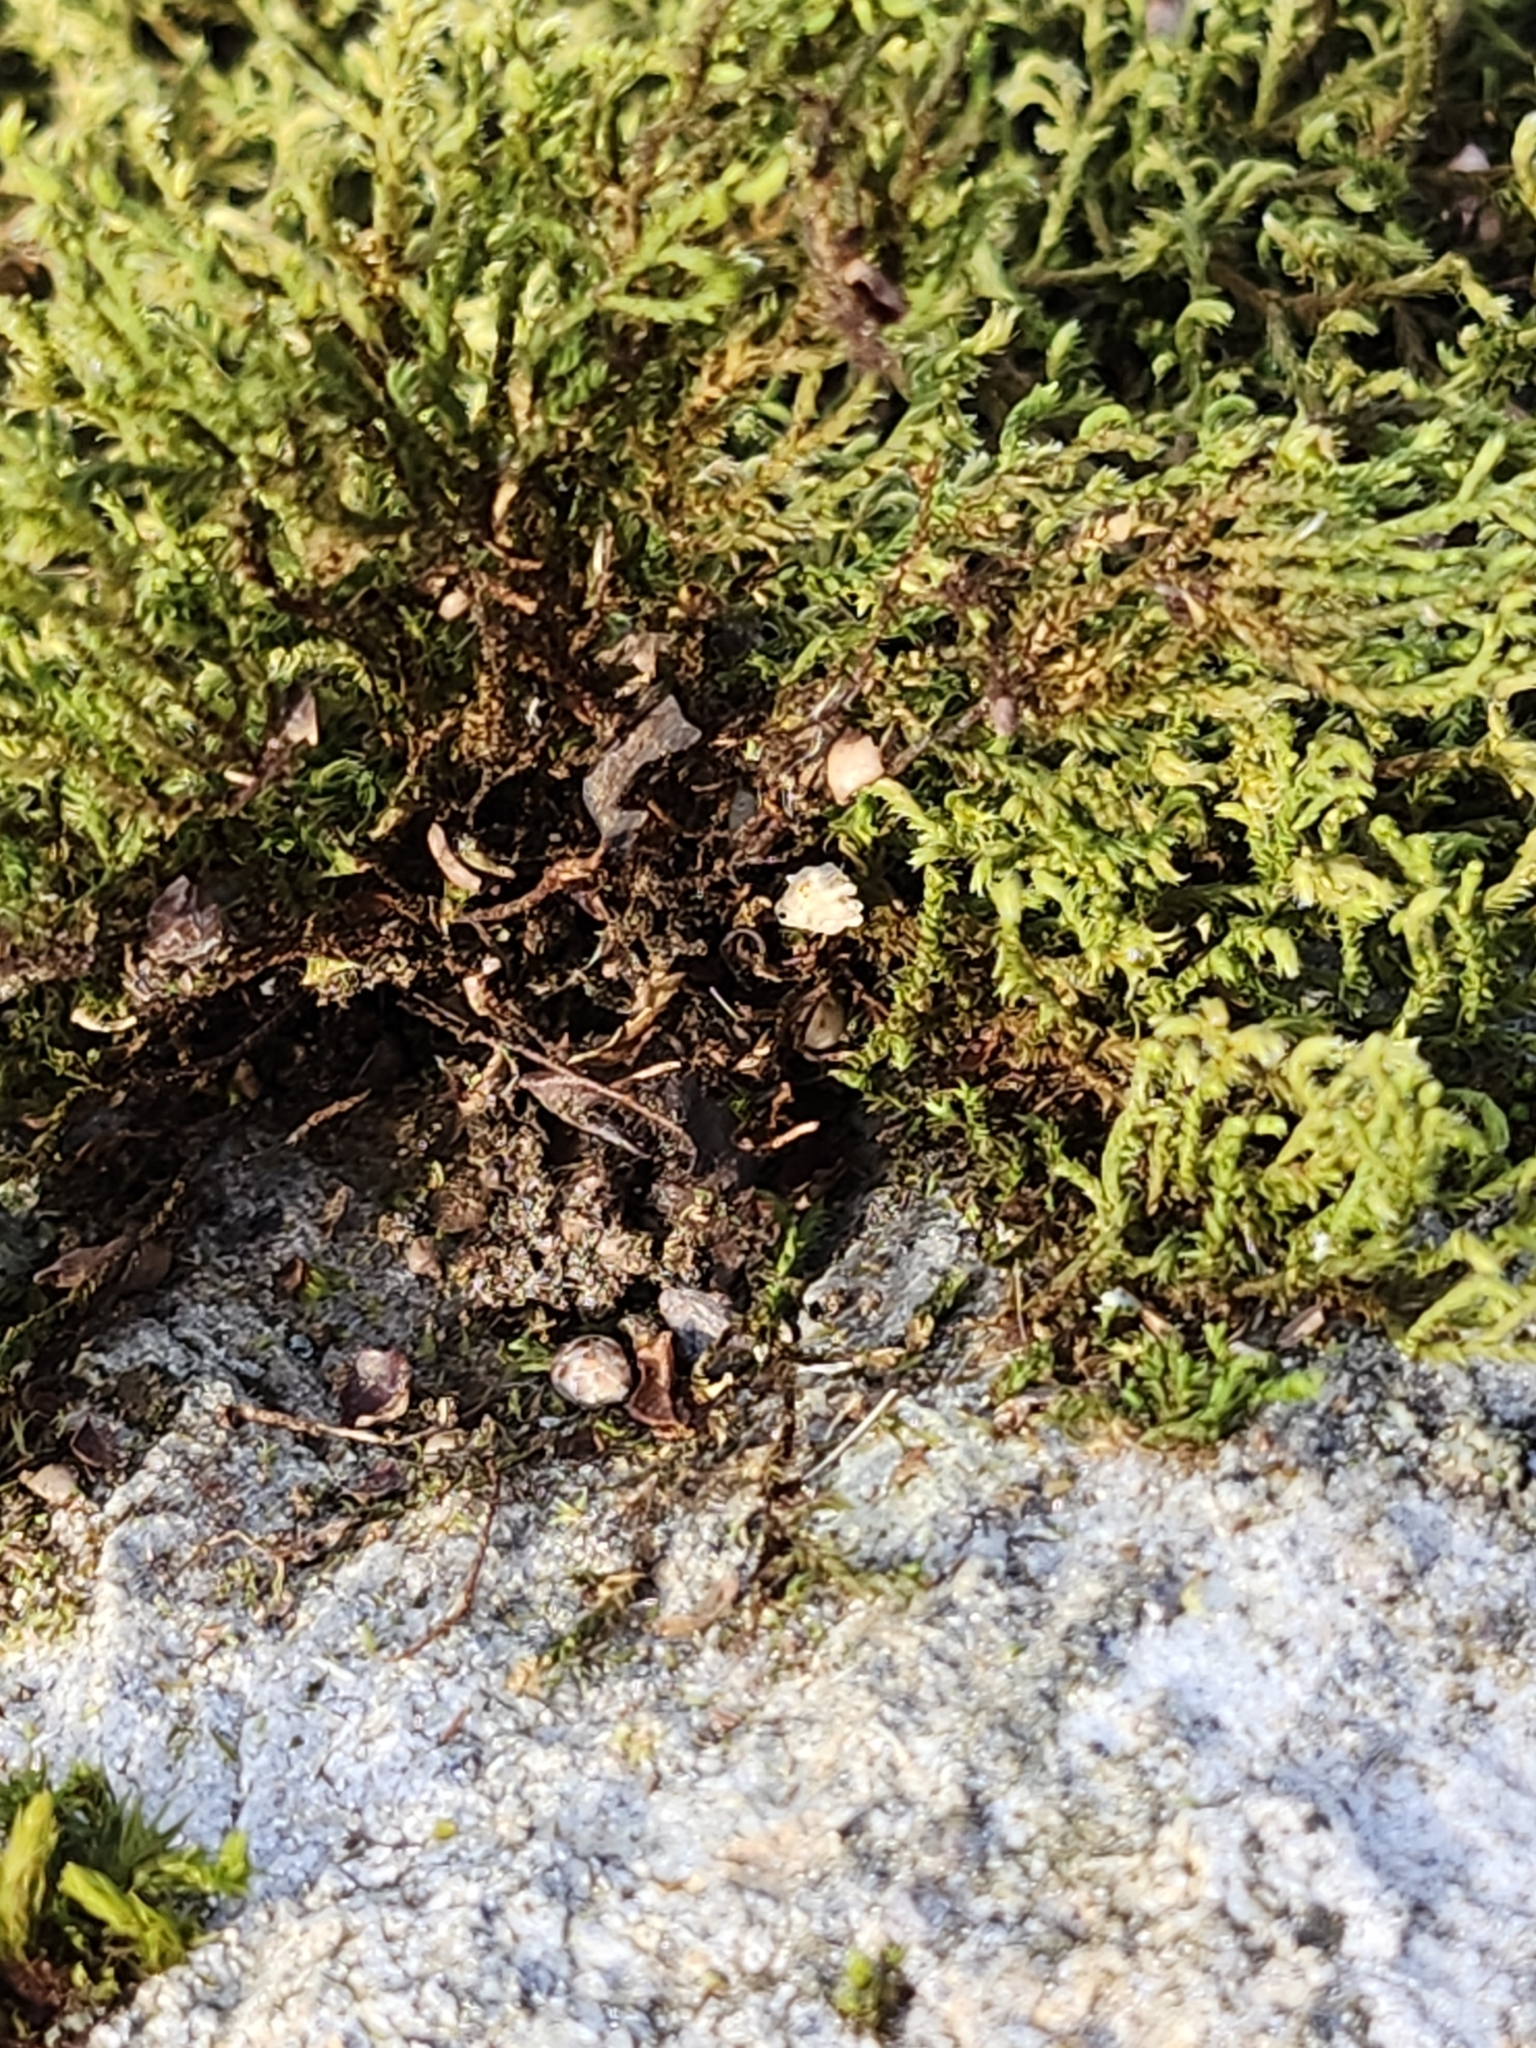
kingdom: Plantae
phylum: Bryophyta
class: Bryopsida
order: Hedwigiales
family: Hedwigiaceae
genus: Hedwigia
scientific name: Hedwigia ciliata
